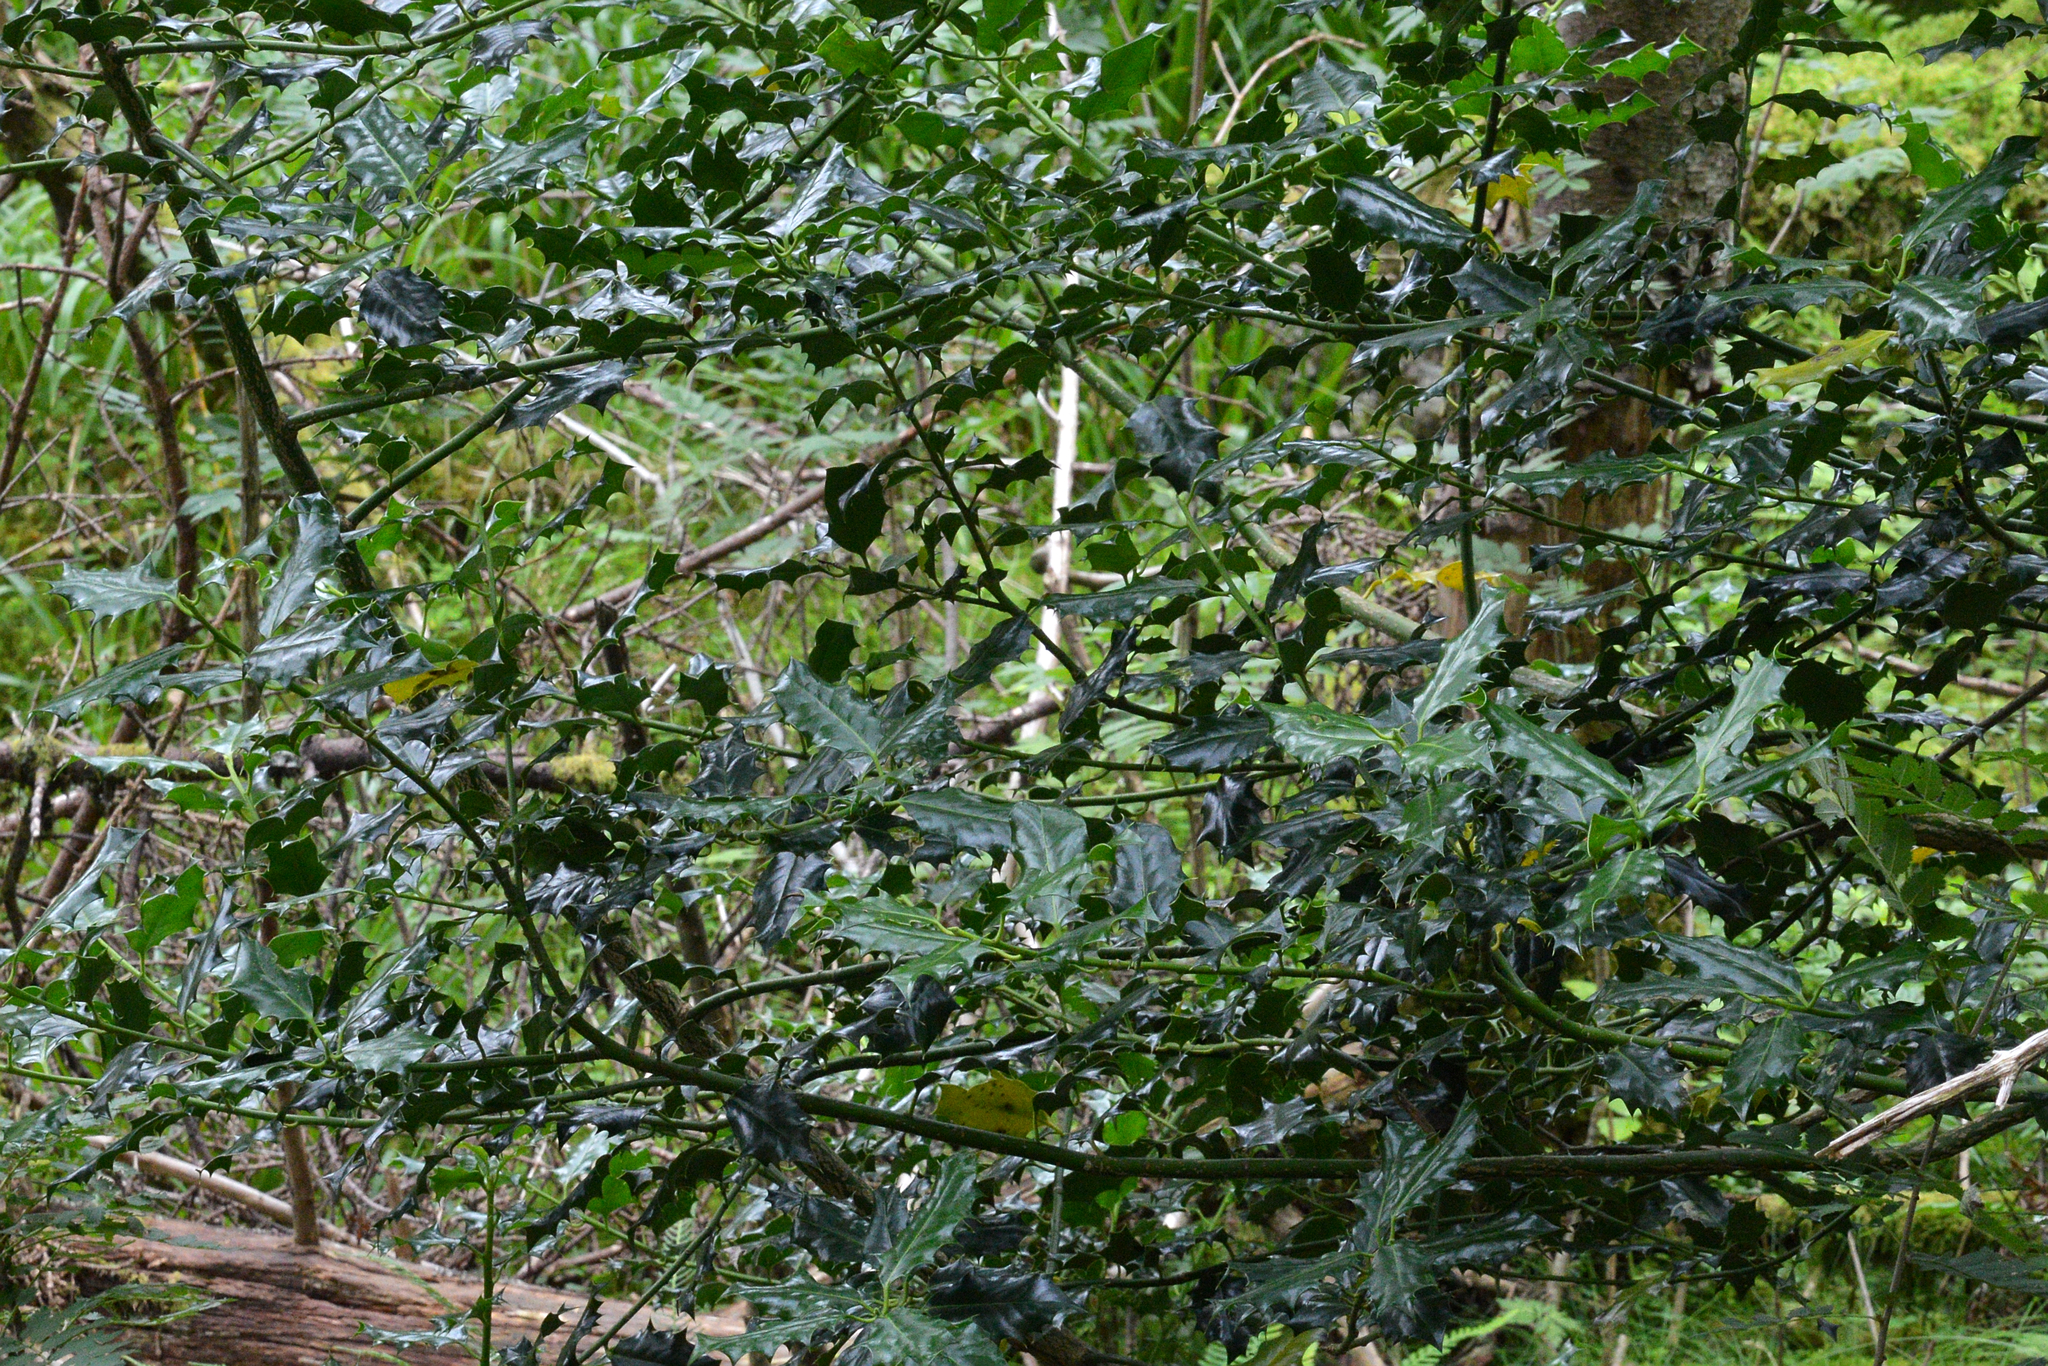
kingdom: Plantae
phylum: Tracheophyta
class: Magnoliopsida
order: Aquifoliales
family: Aquifoliaceae
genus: Ilex
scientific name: Ilex aquifolium
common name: English holly
